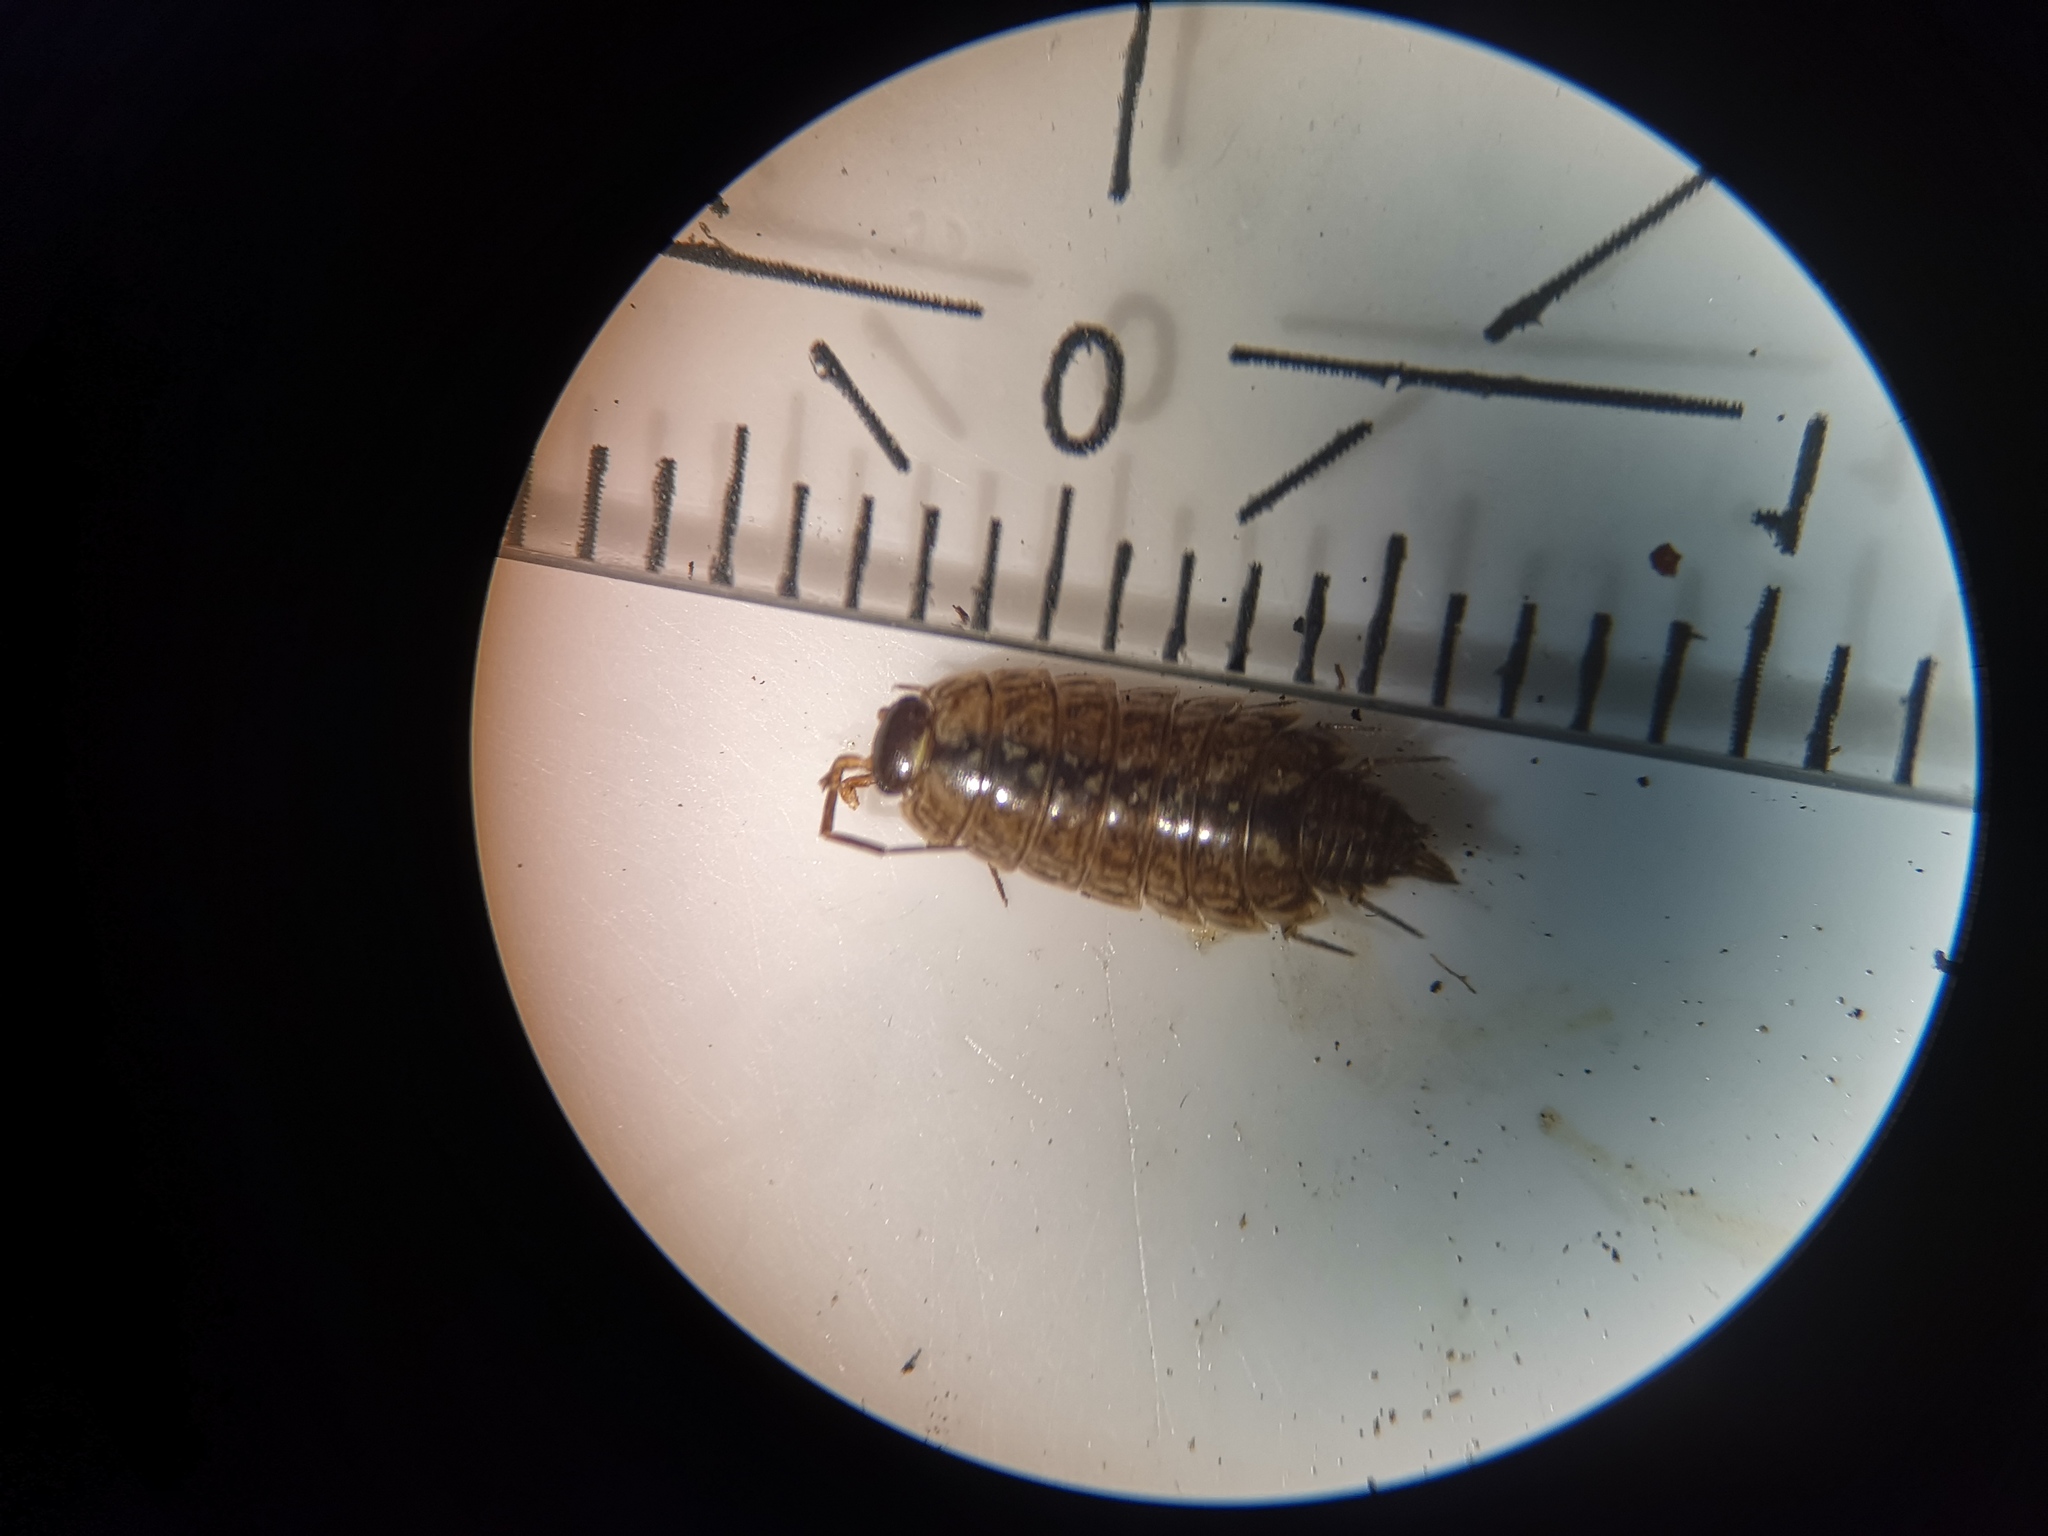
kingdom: Animalia
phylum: Arthropoda
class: Malacostraca
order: Isopoda
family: Philosciidae
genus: Philoscia
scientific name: Philoscia muscorum
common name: Common striped woodlouse
